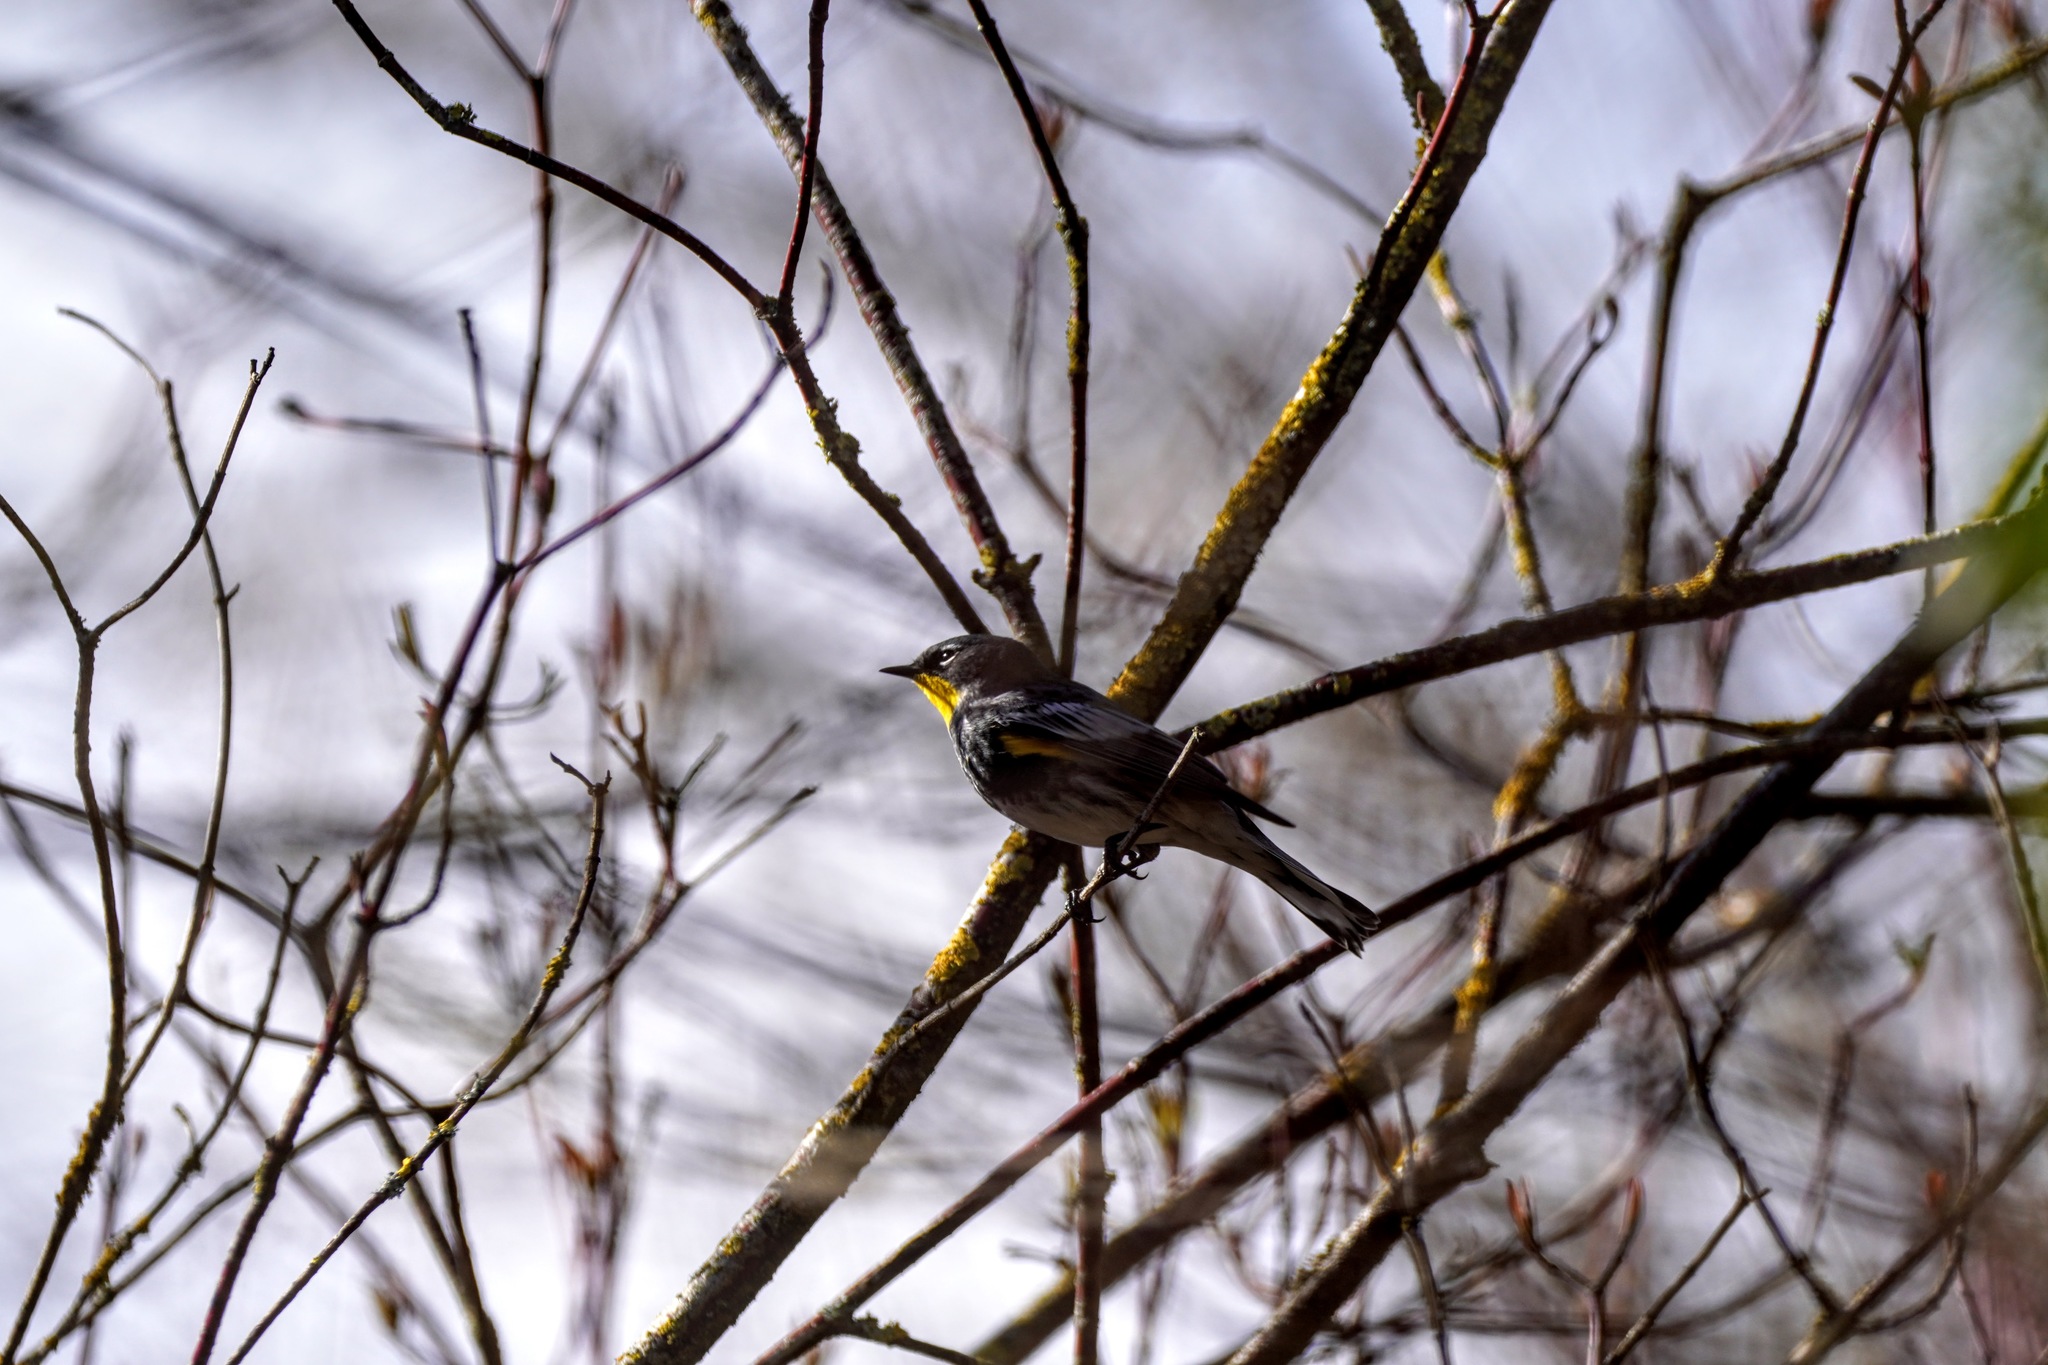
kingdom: Animalia
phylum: Chordata
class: Aves
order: Passeriformes
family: Parulidae
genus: Setophaga
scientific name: Setophaga coronata
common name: Myrtle warbler
